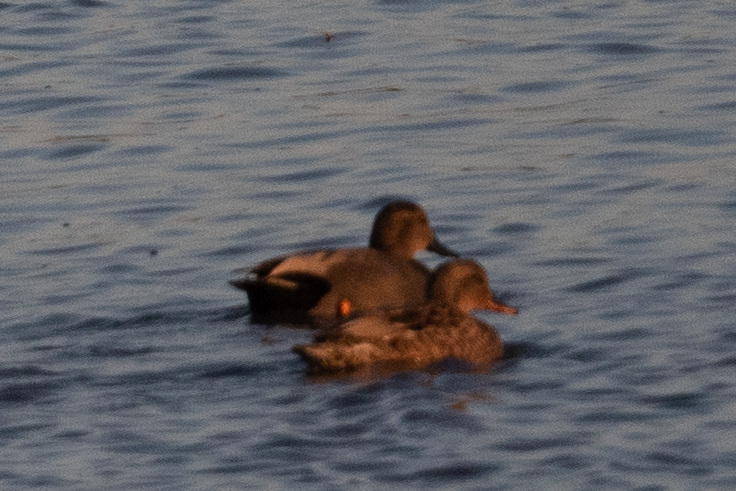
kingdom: Animalia
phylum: Chordata
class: Aves
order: Anseriformes
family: Anatidae
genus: Mareca
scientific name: Mareca strepera
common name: Gadwall
